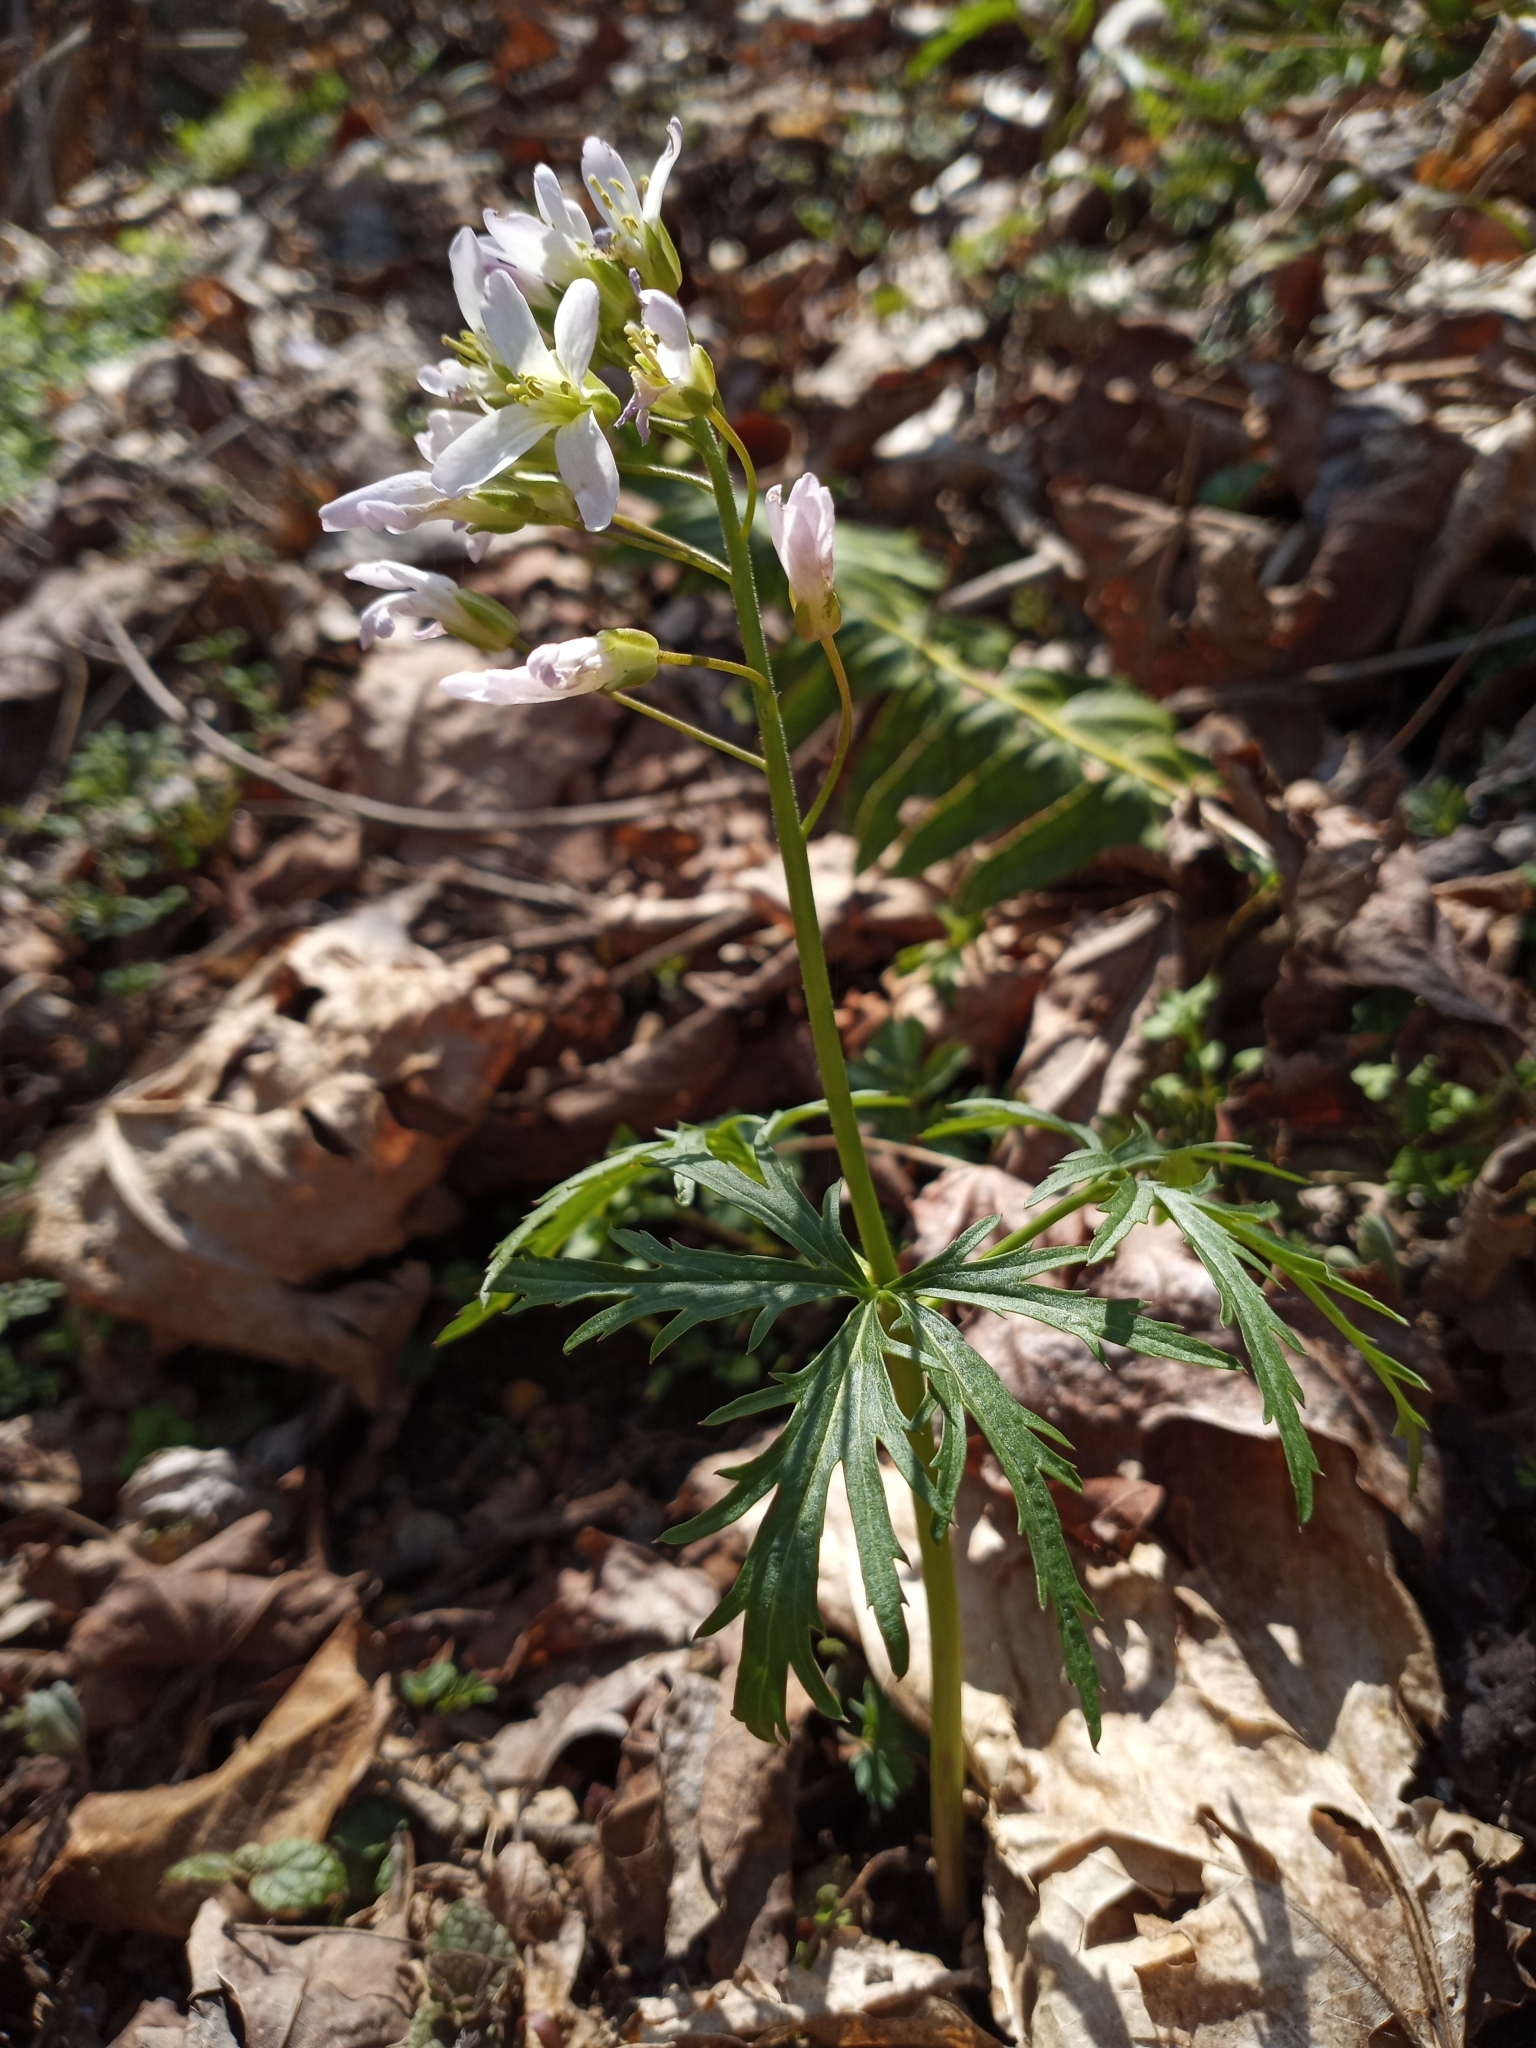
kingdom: Plantae
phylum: Tracheophyta
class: Magnoliopsida
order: Brassicales
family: Brassicaceae
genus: Cardamine
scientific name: Cardamine concatenata
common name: Cut-leaf toothcup
